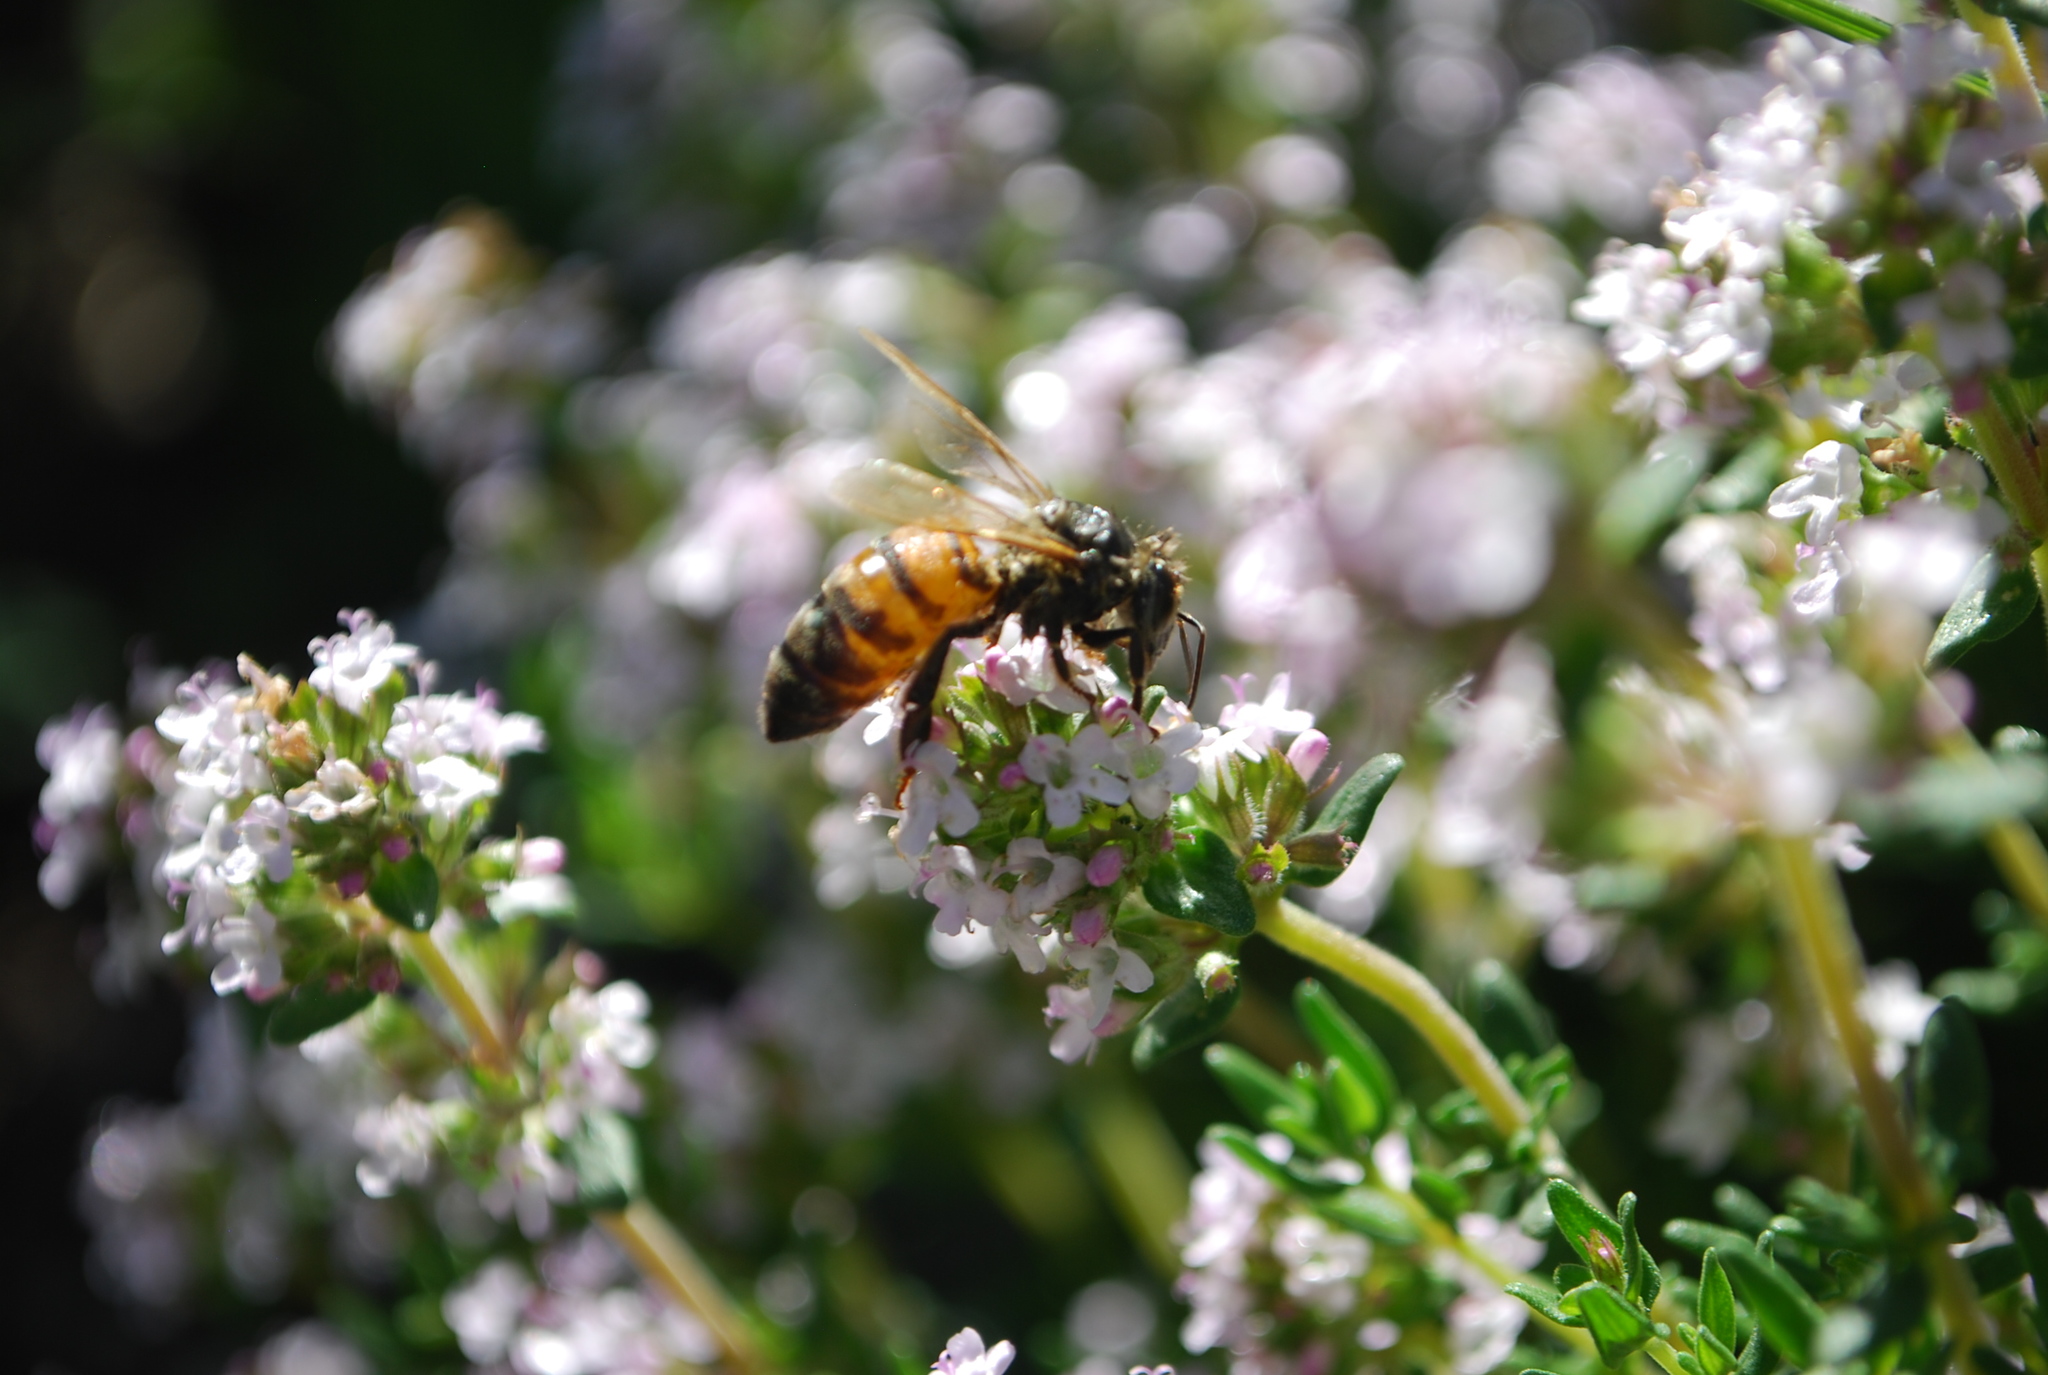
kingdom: Animalia
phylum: Arthropoda
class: Insecta
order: Hymenoptera
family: Apidae
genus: Apis
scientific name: Apis mellifera
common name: Honey bee
